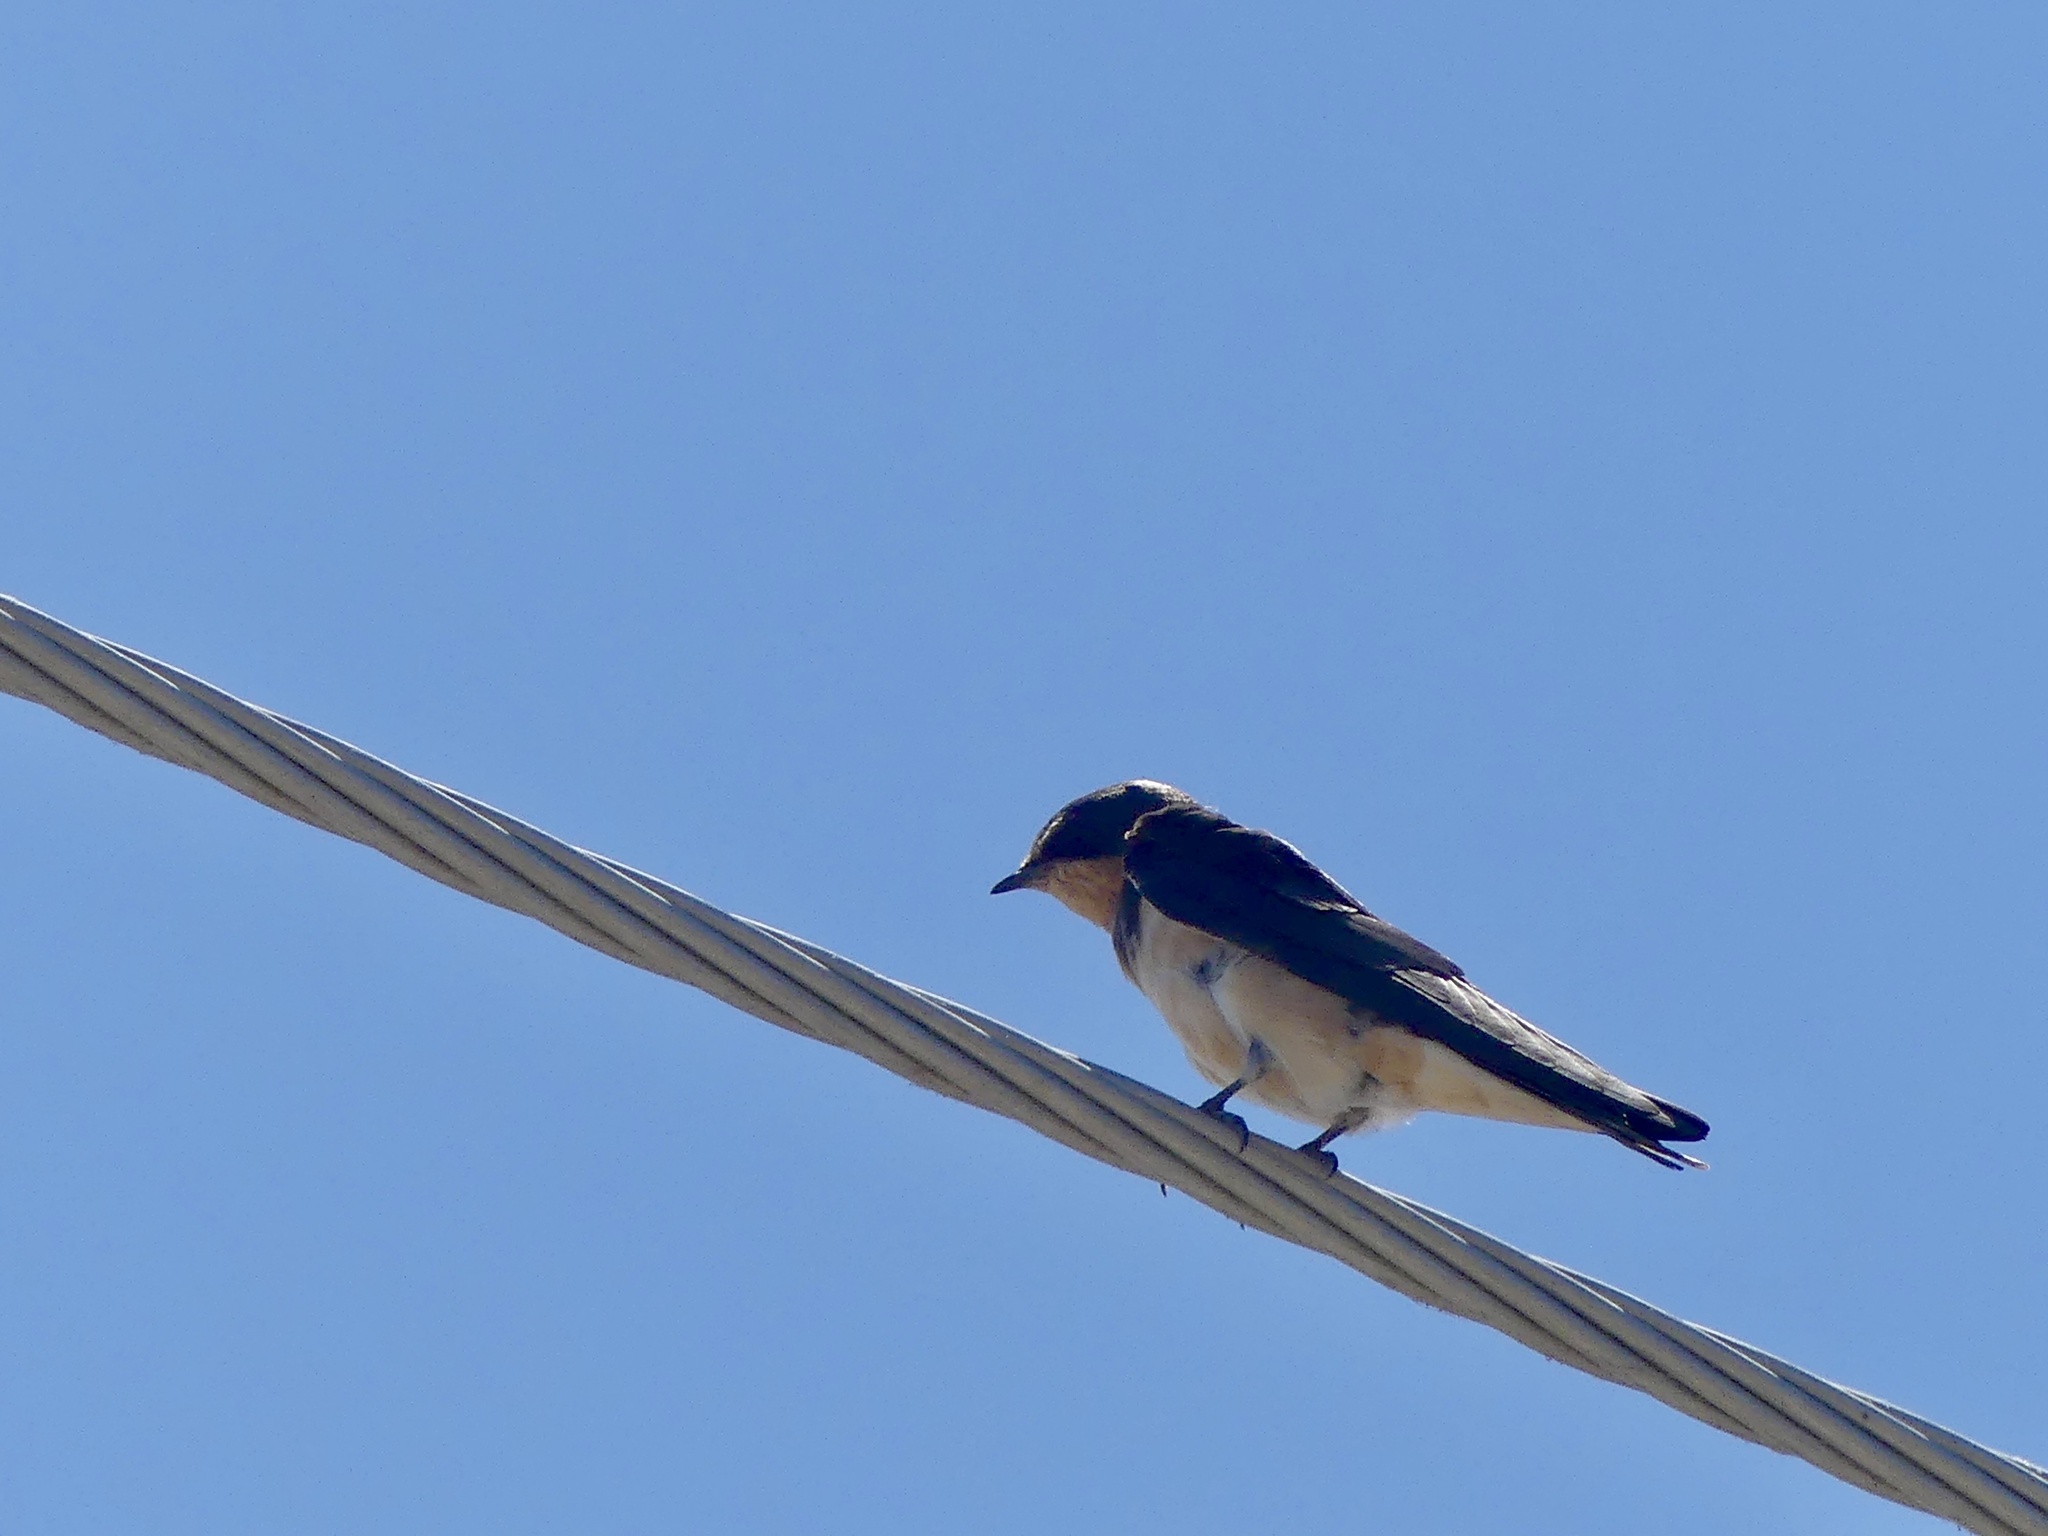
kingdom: Animalia
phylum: Chordata
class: Aves
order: Passeriformes
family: Hirundinidae
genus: Hirundo
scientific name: Hirundo rustica
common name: Barn swallow
